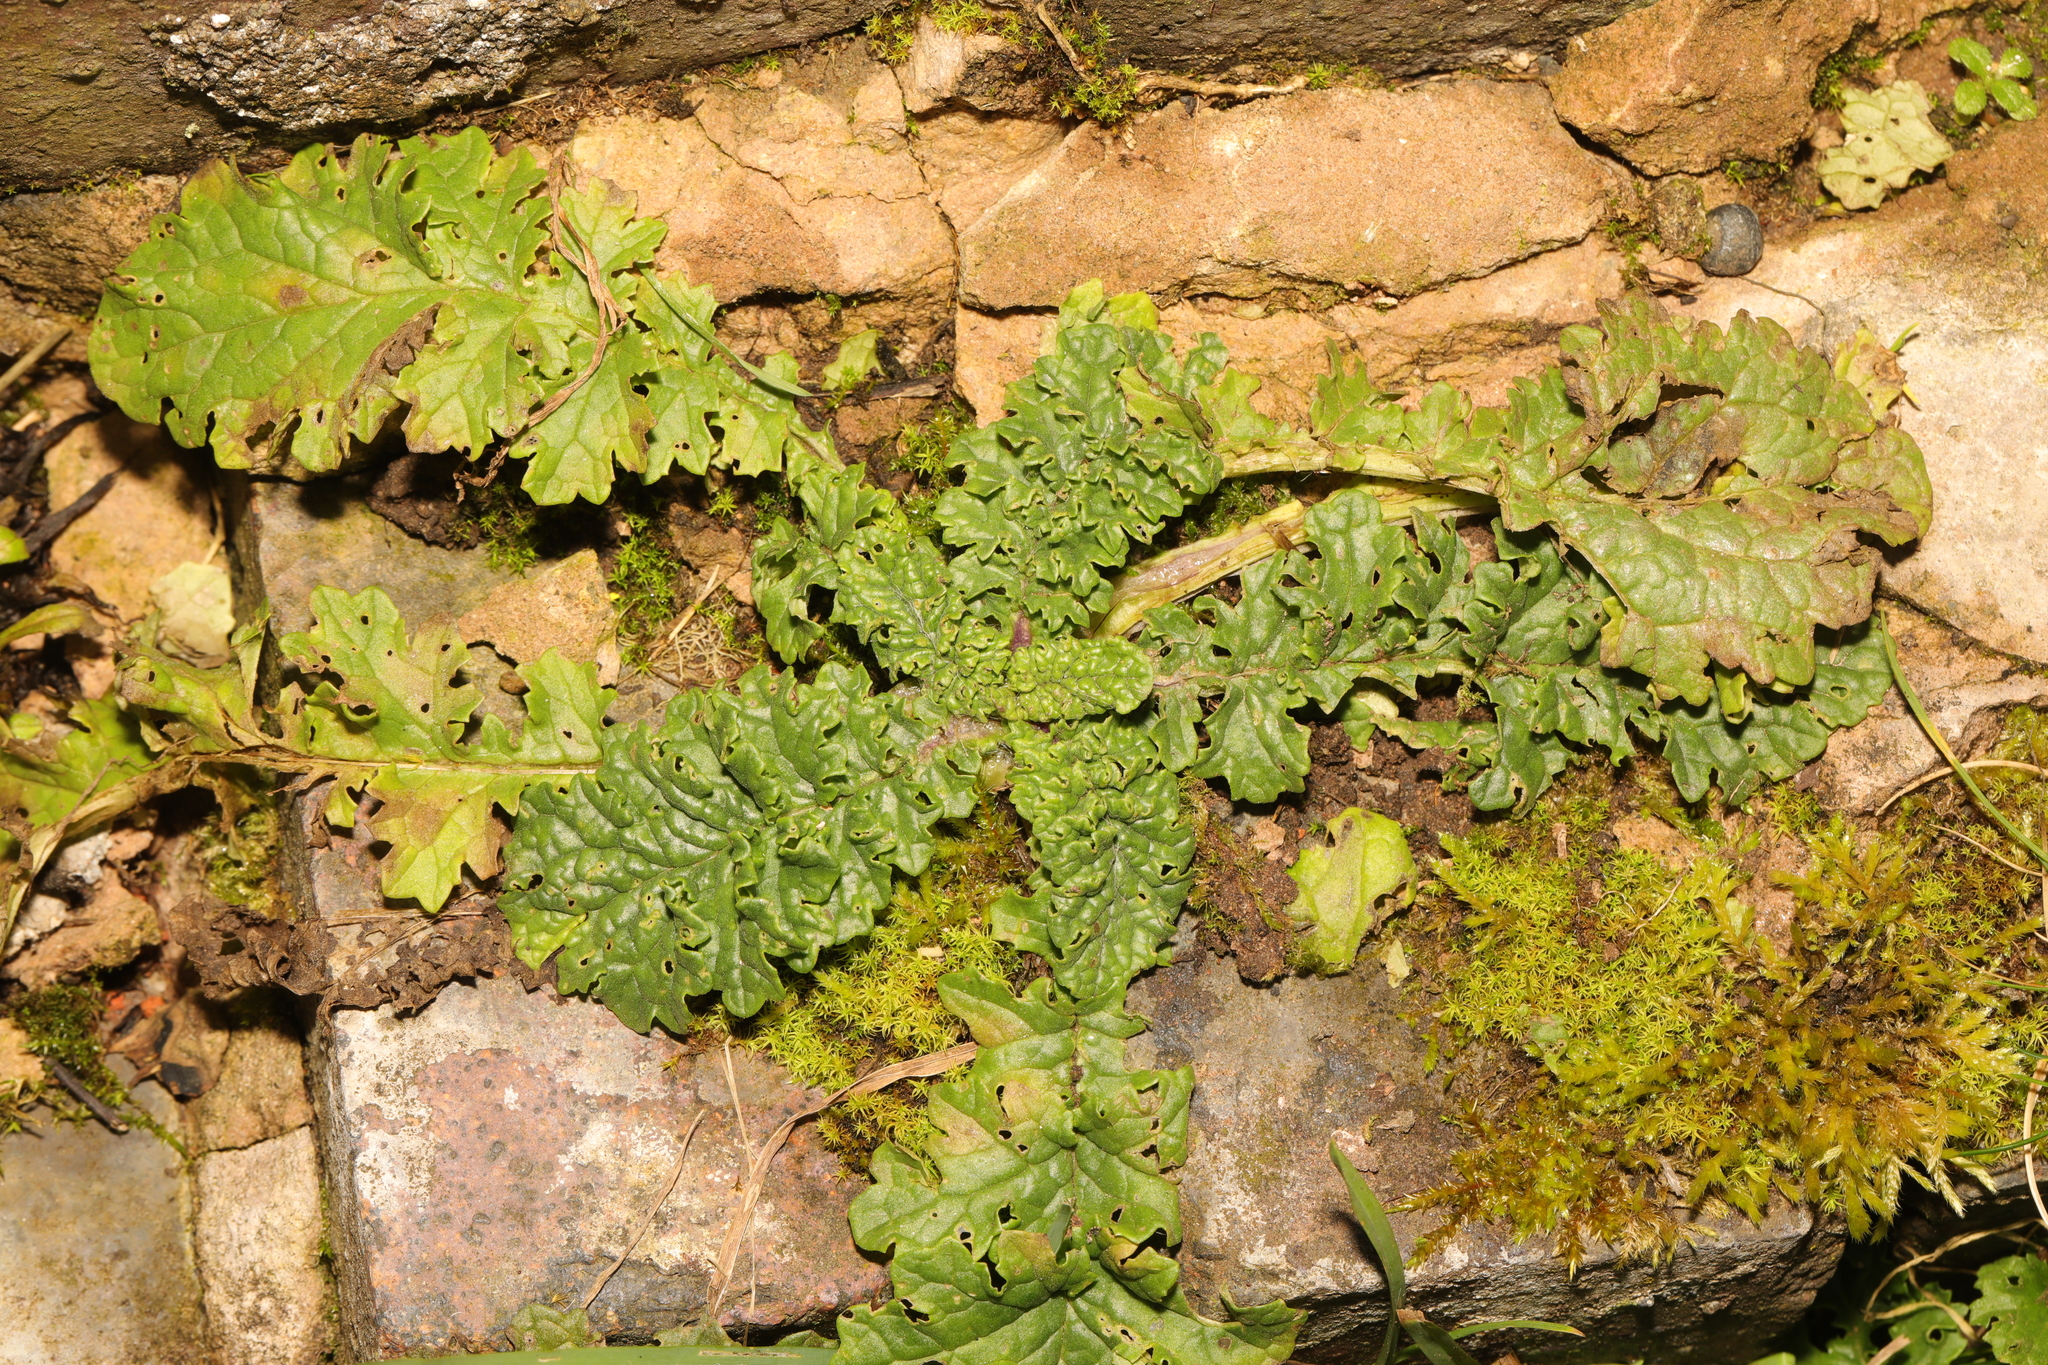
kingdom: Plantae
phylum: Tracheophyta
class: Magnoliopsida
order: Asterales
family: Asteraceae
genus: Jacobaea
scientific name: Jacobaea vulgaris
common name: Stinking willie
